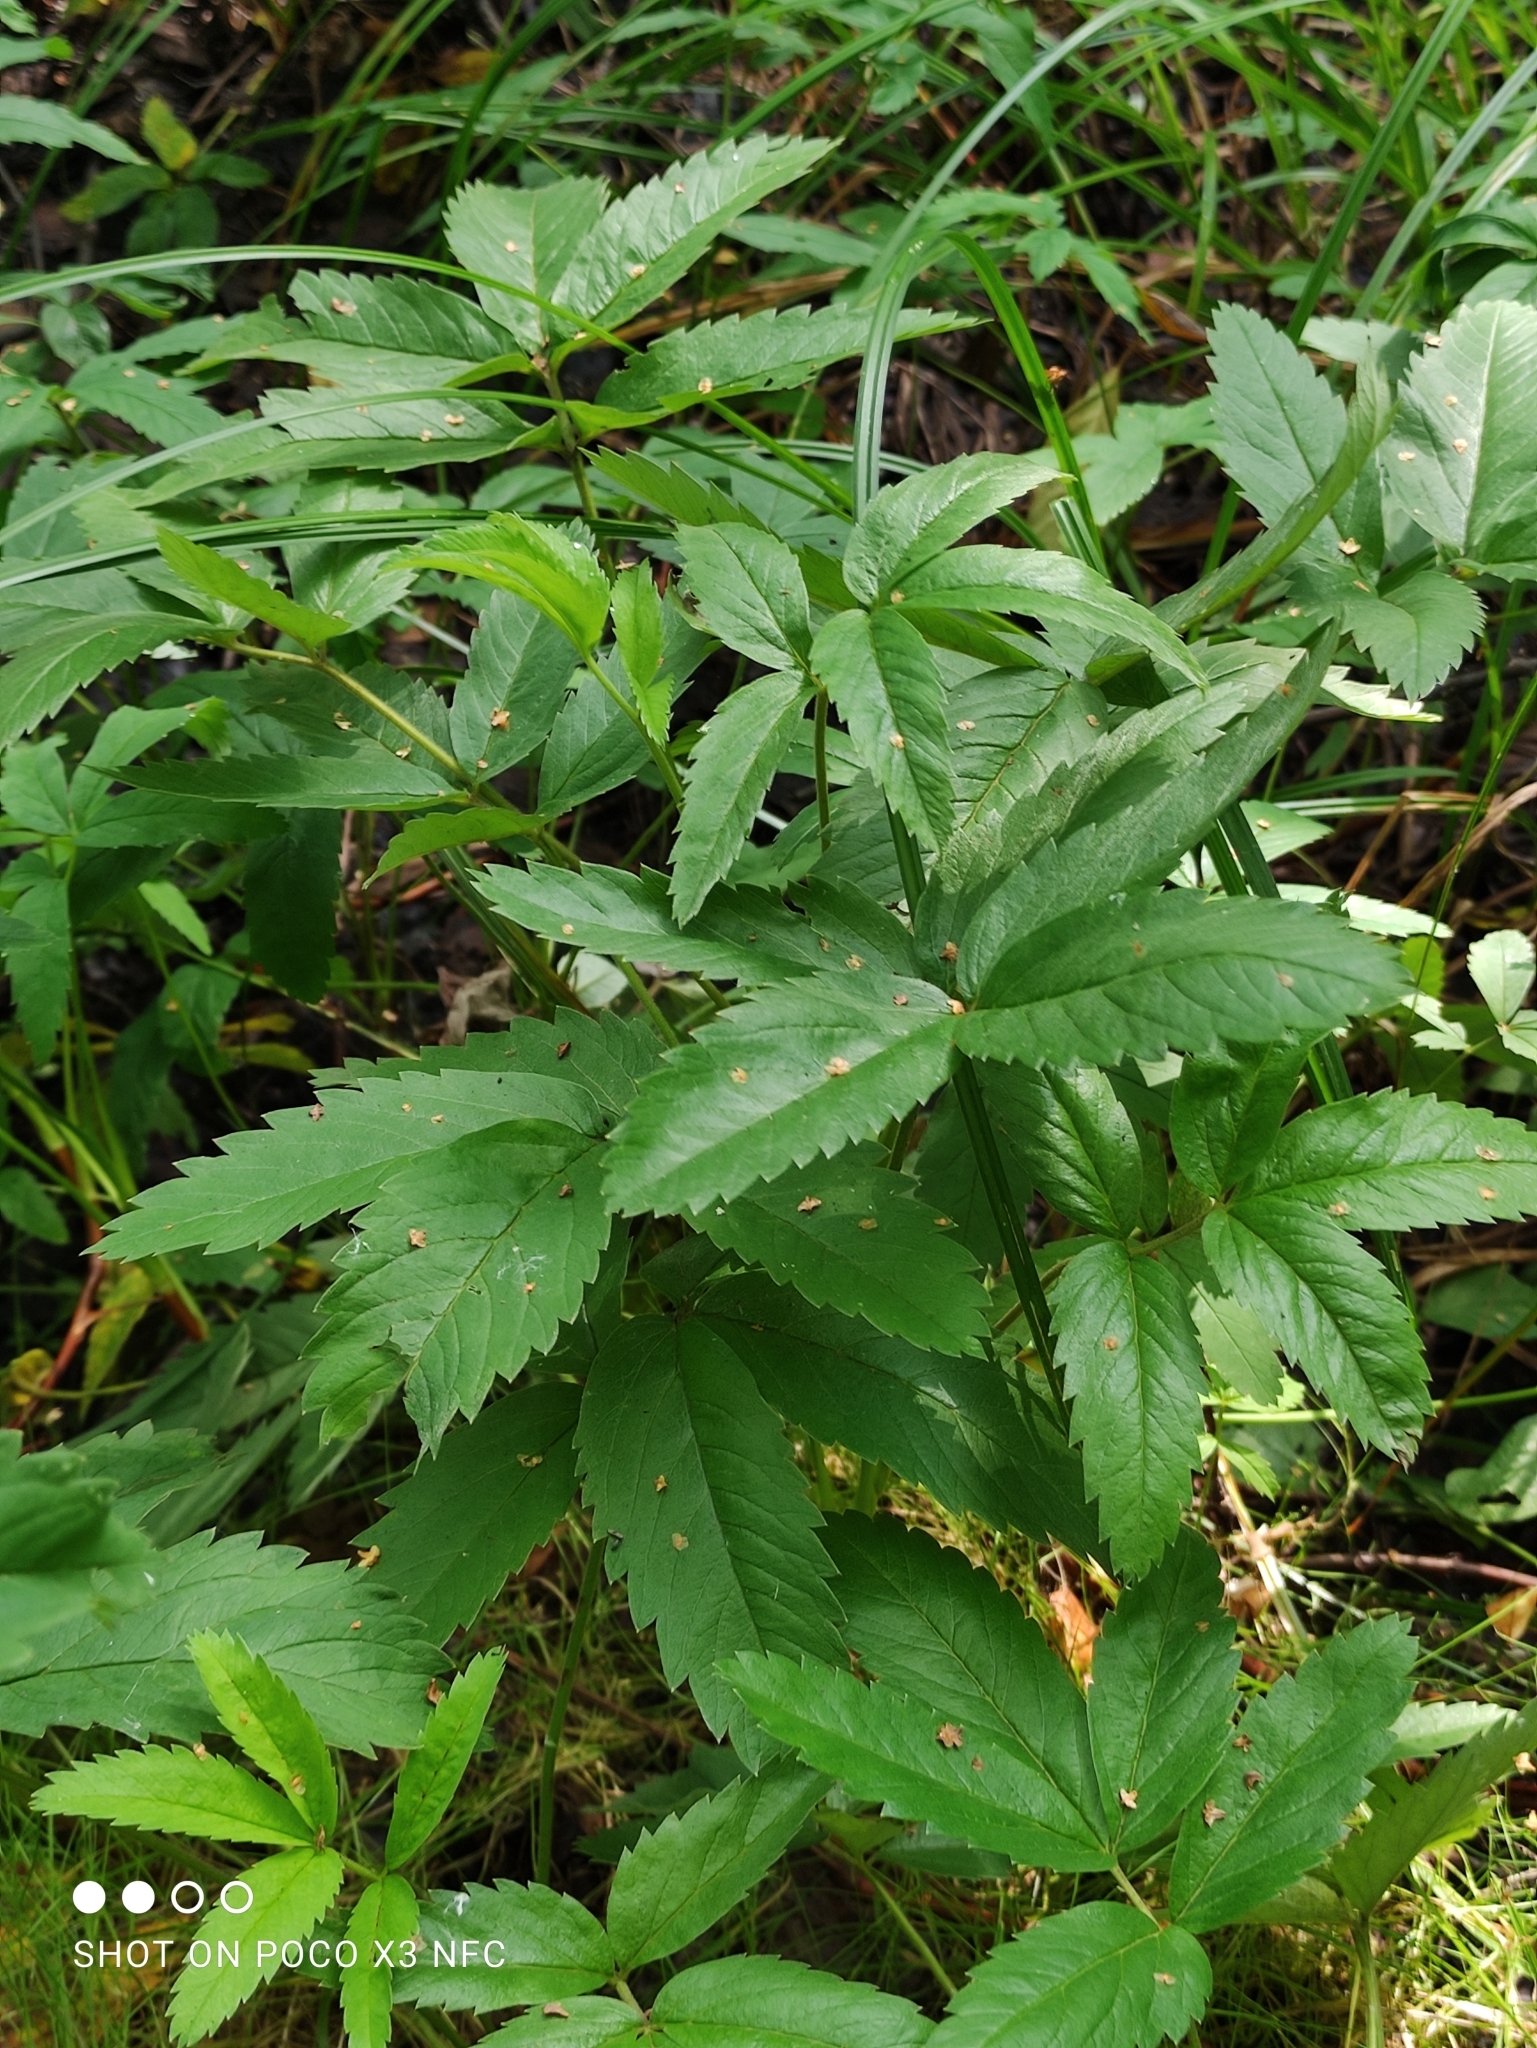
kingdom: Plantae
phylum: Tracheophyta
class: Magnoliopsida
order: Rosales
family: Rosaceae
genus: Comarum
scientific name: Comarum palustre
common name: Marsh cinquefoil
